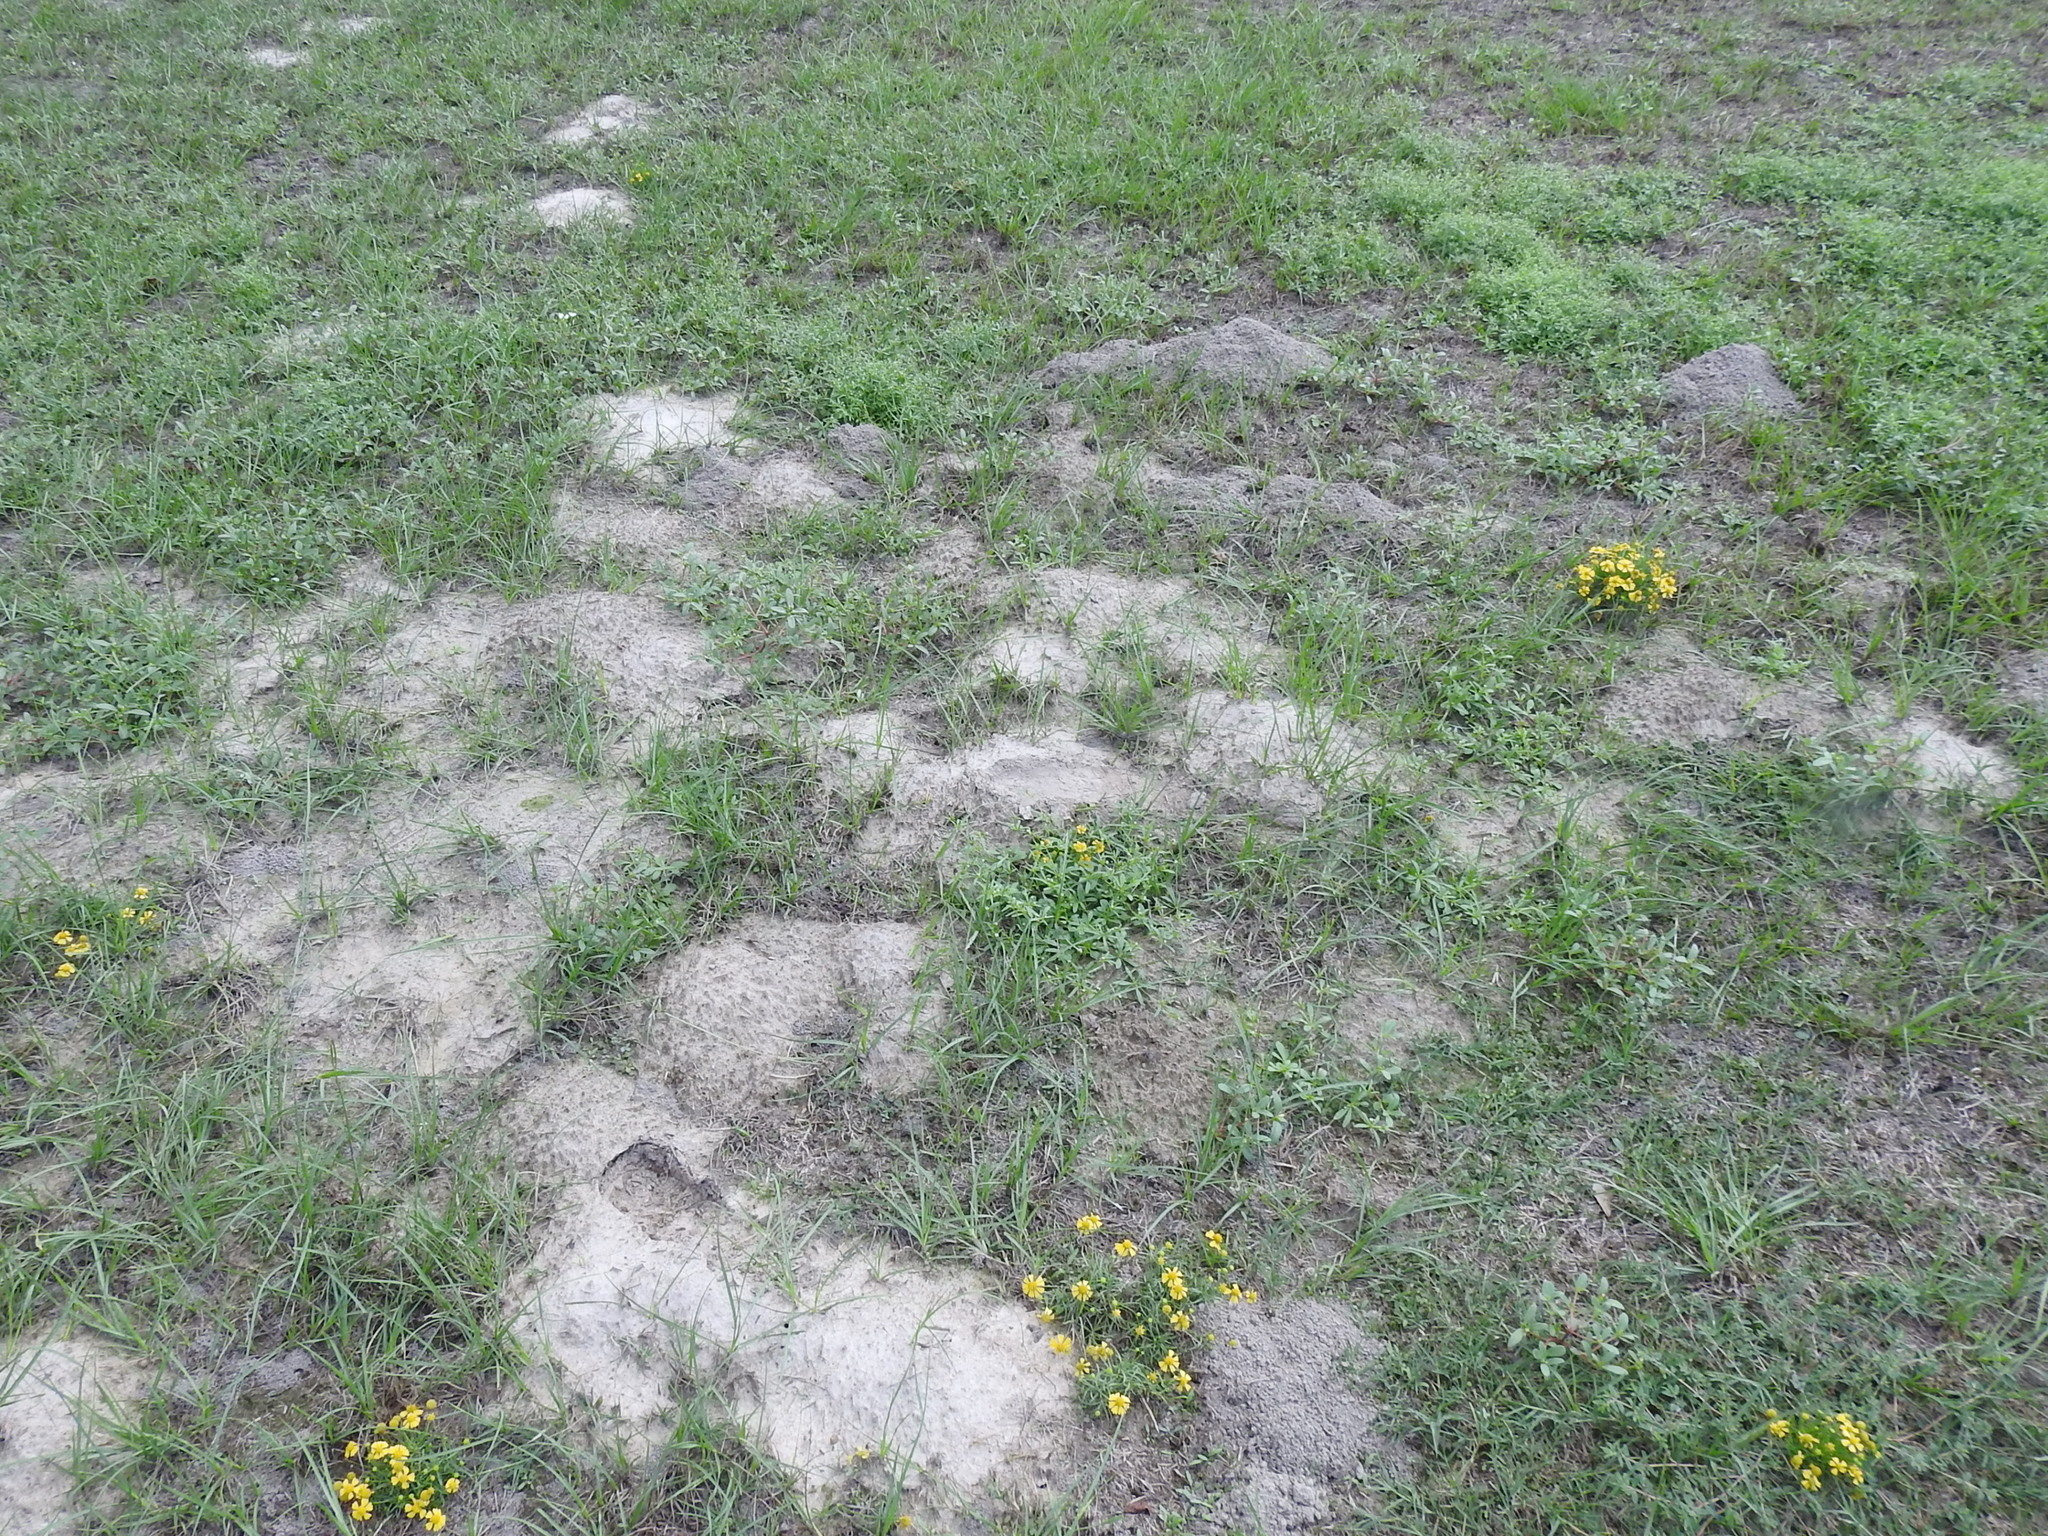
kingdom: Animalia
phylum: Chordata
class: Mammalia
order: Rodentia
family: Geomyidae
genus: Geomys
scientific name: Geomys breviceps
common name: Baird's pocket gopher
